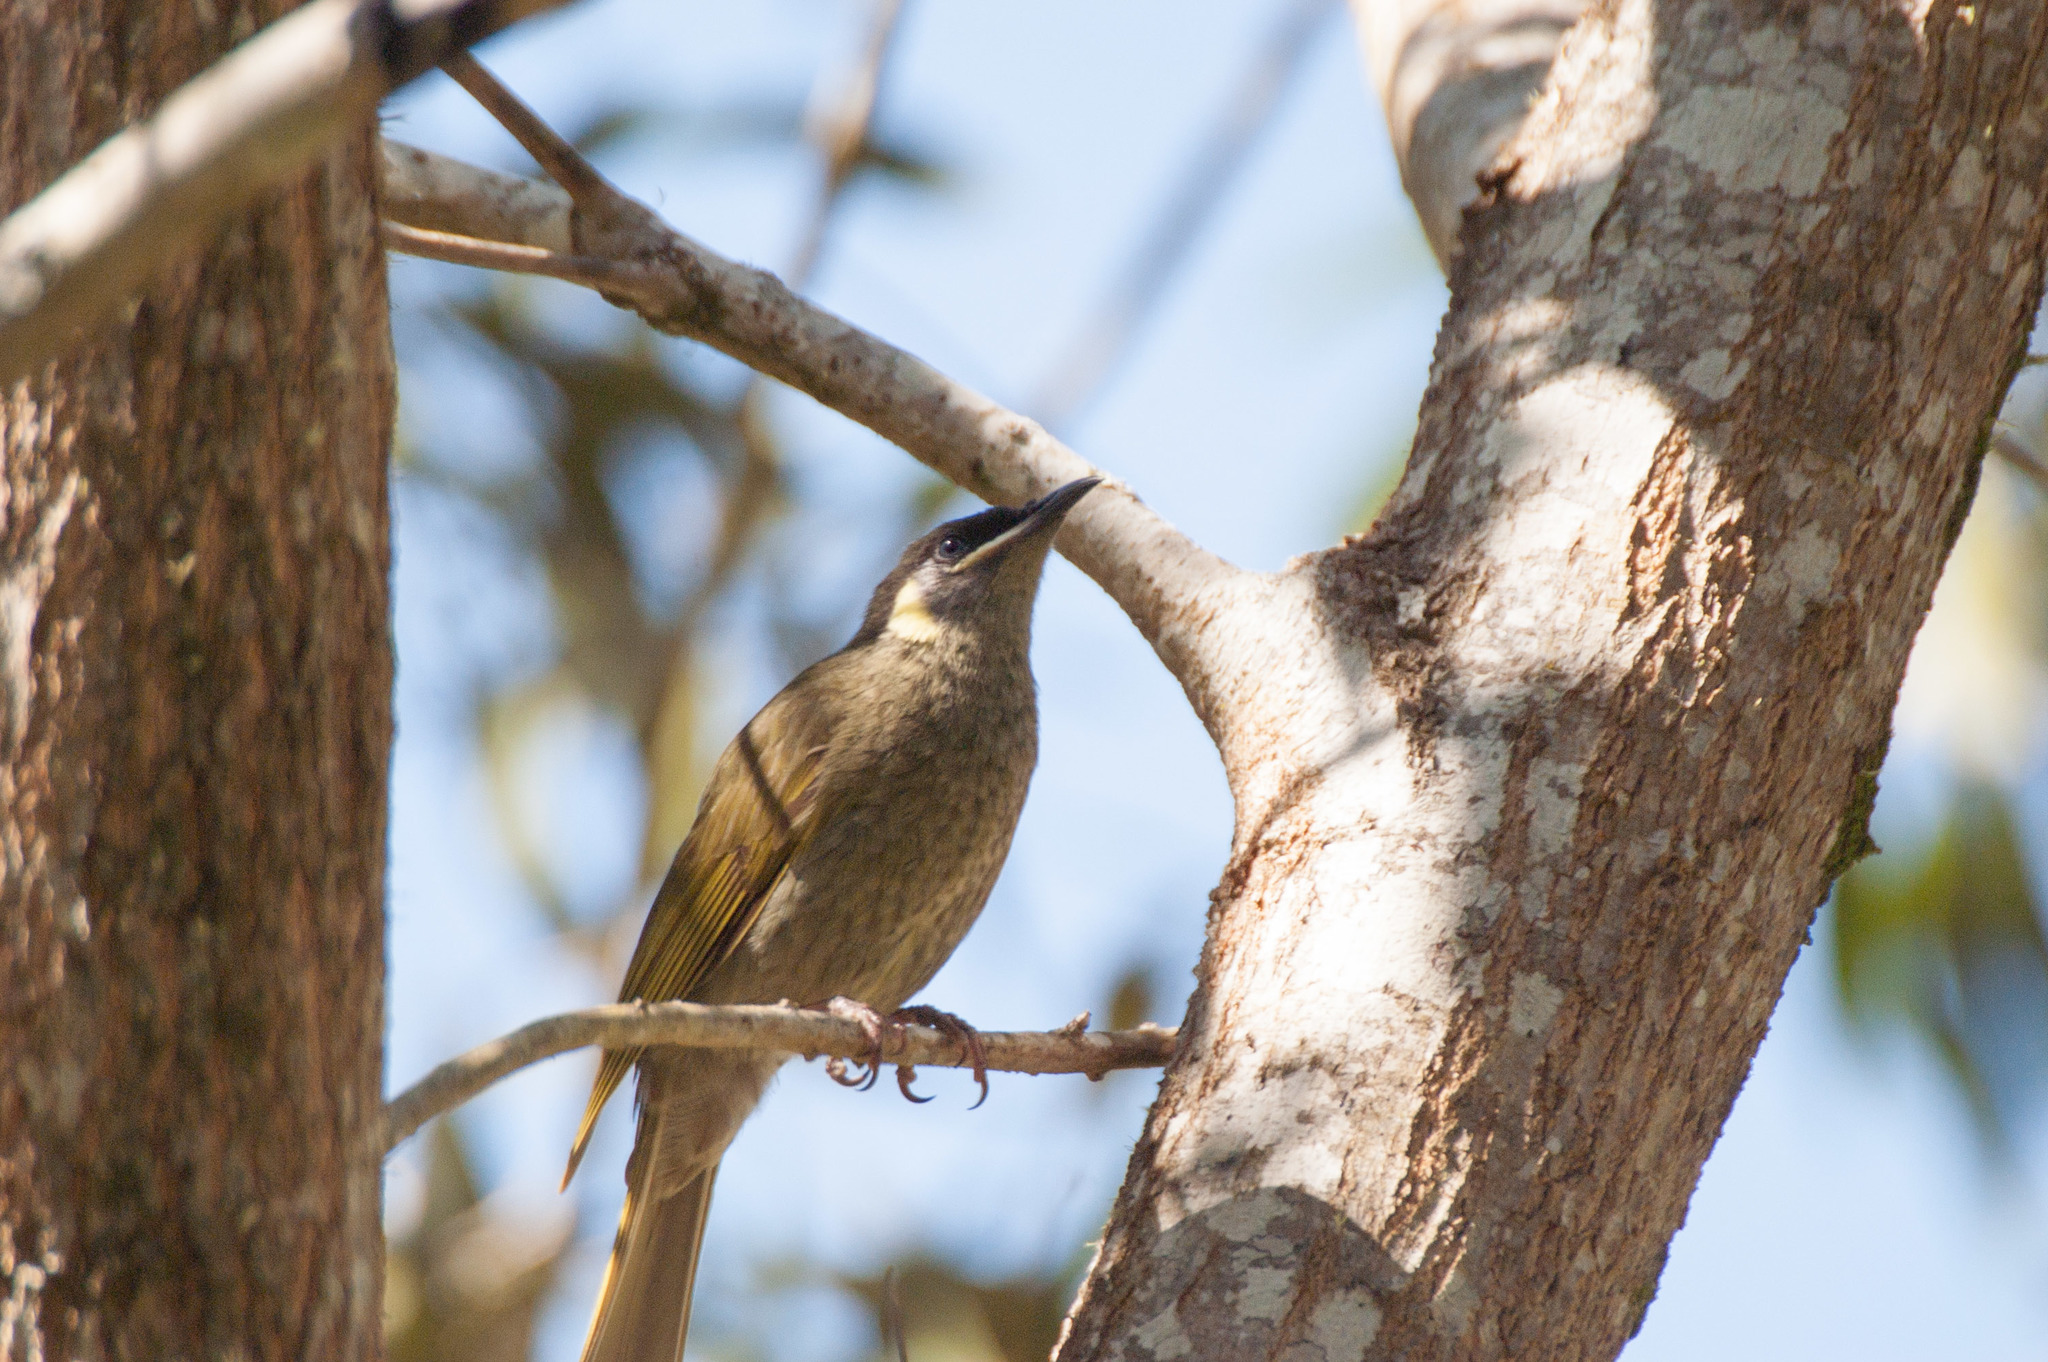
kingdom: Animalia
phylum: Chordata
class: Aves
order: Passeriformes
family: Meliphagidae
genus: Meliphaga
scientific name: Meliphaga lewinii
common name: Lewin's honeyeater
